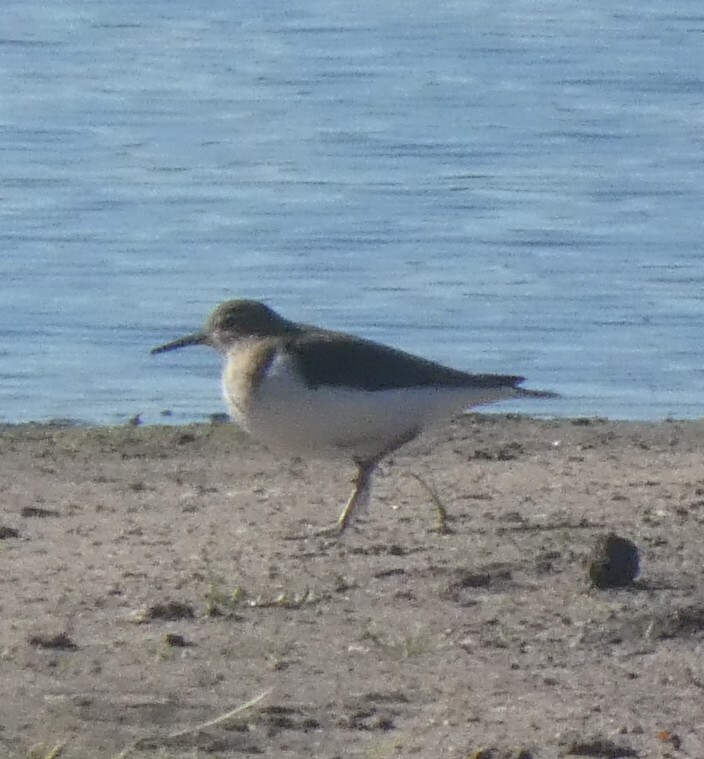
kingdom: Animalia
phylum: Chordata
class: Aves
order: Charadriiformes
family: Scolopacidae
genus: Actitis
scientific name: Actitis hypoleucos
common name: Common sandpiper
